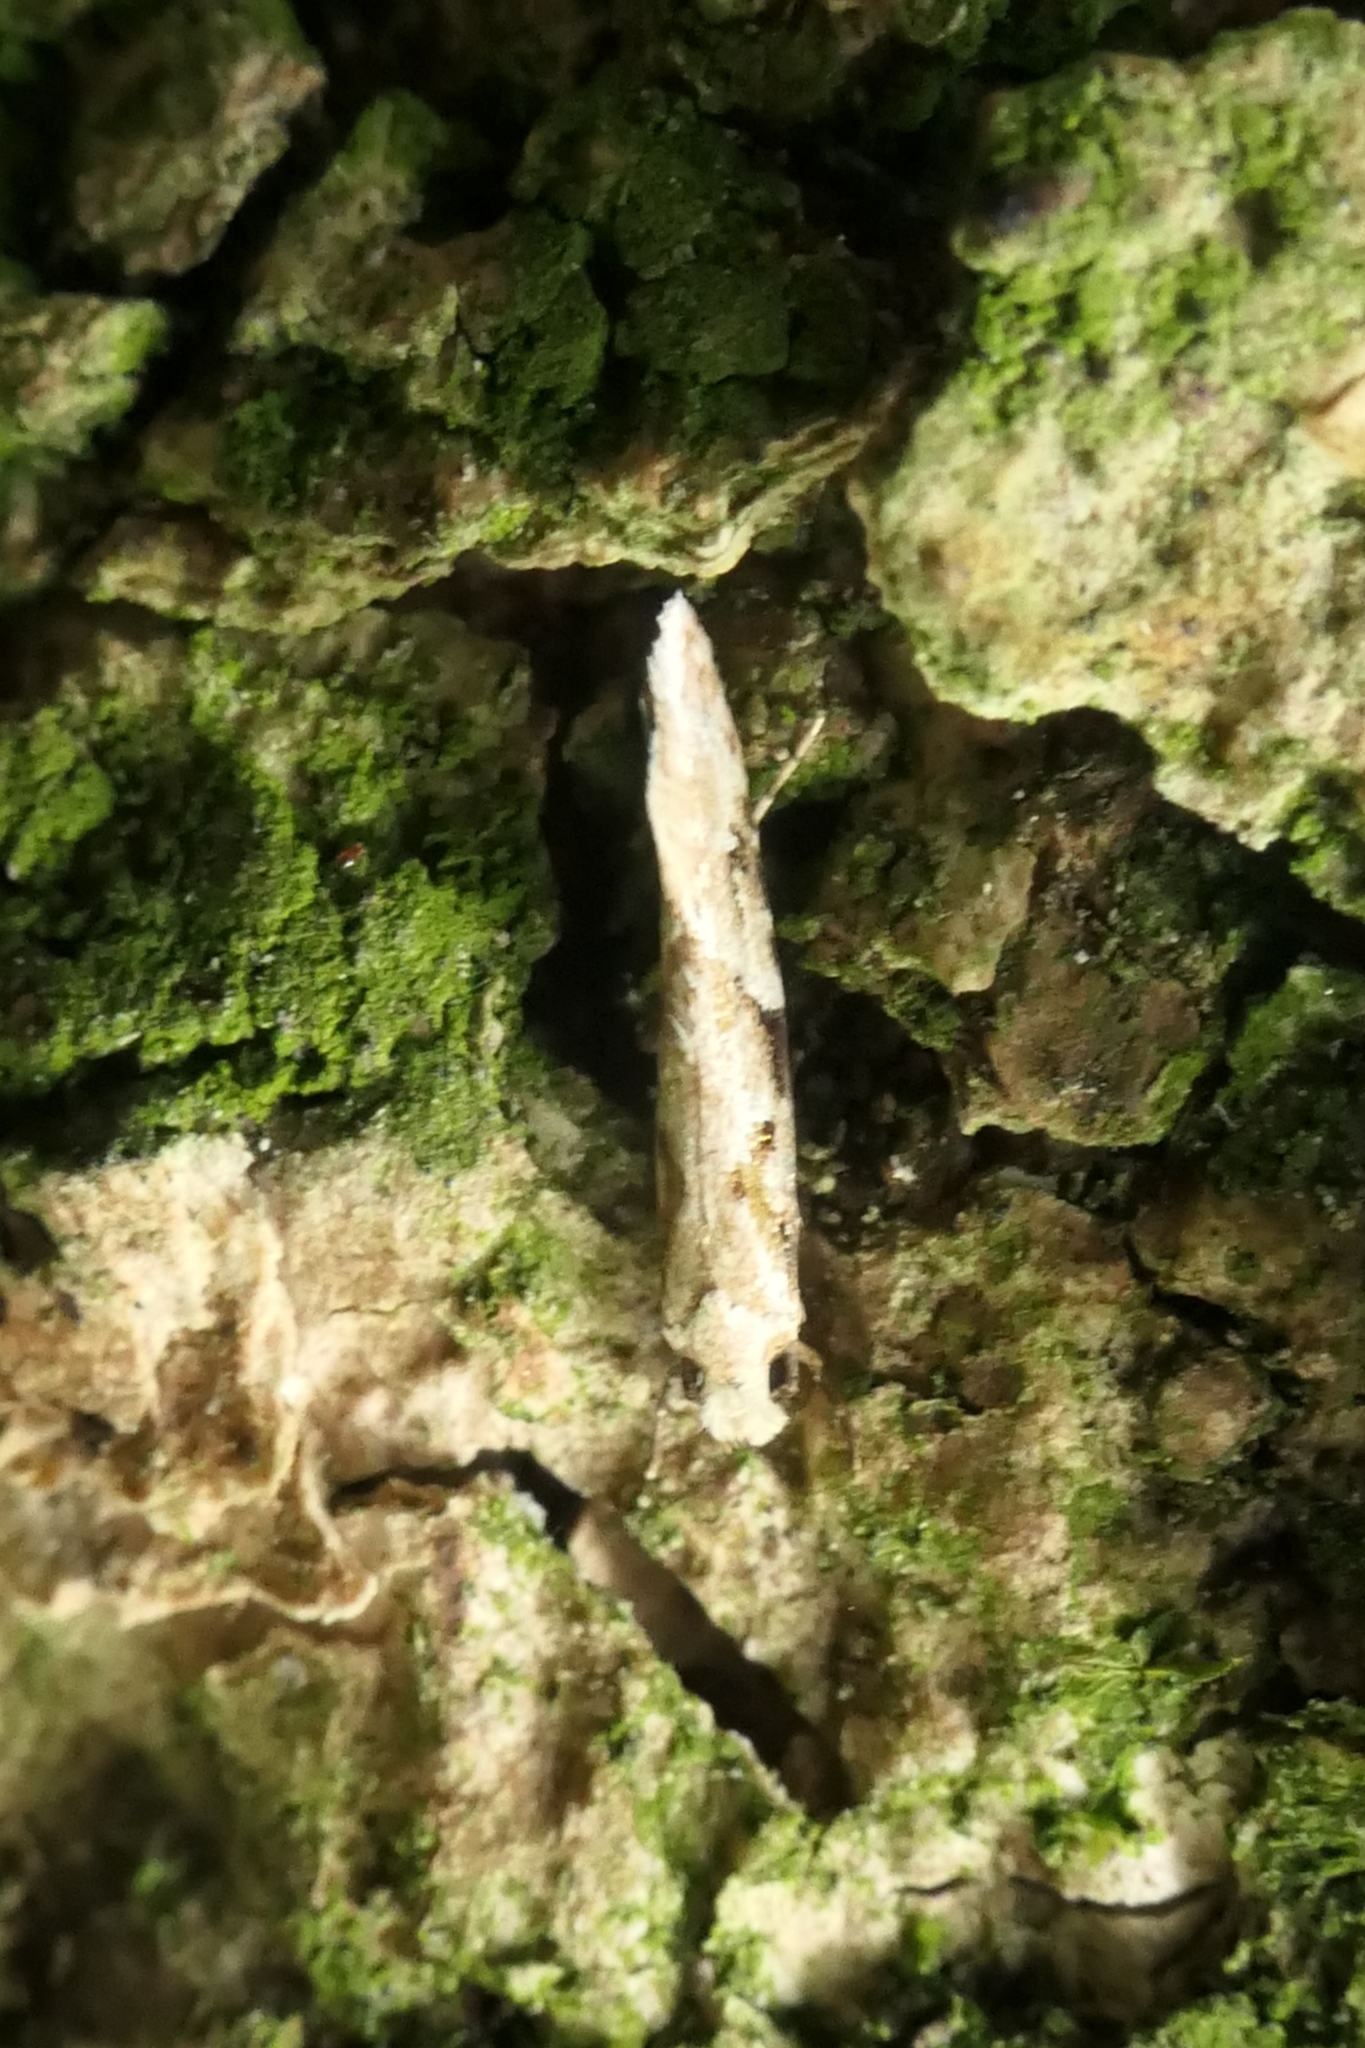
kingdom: Animalia
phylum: Arthropoda
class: Insecta
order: Lepidoptera
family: Tineidae
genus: Crypsitricha
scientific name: Crypsitricha mesotypa
